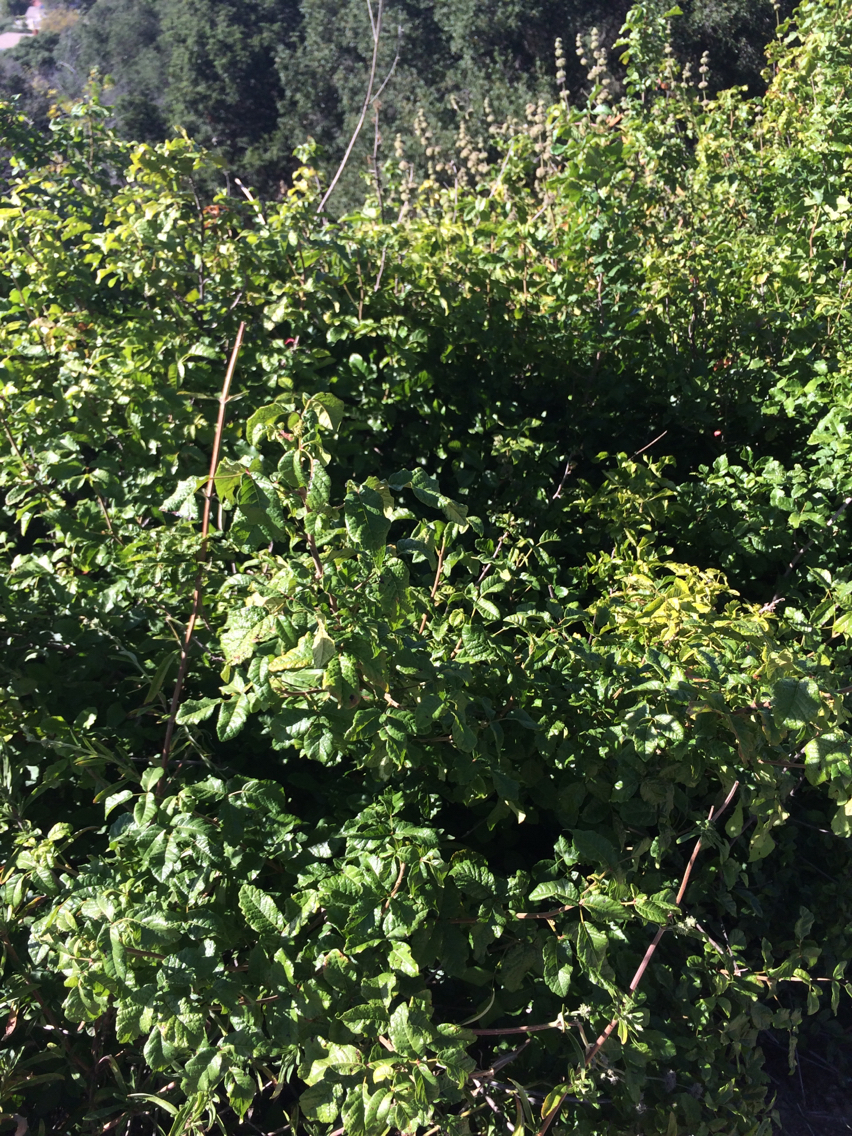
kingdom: Plantae
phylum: Tracheophyta
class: Magnoliopsida
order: Sapindales
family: Anacardiaceae
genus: Toxicodendron
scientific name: Toxicodendron diversilobum
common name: Pacific poison-oak
